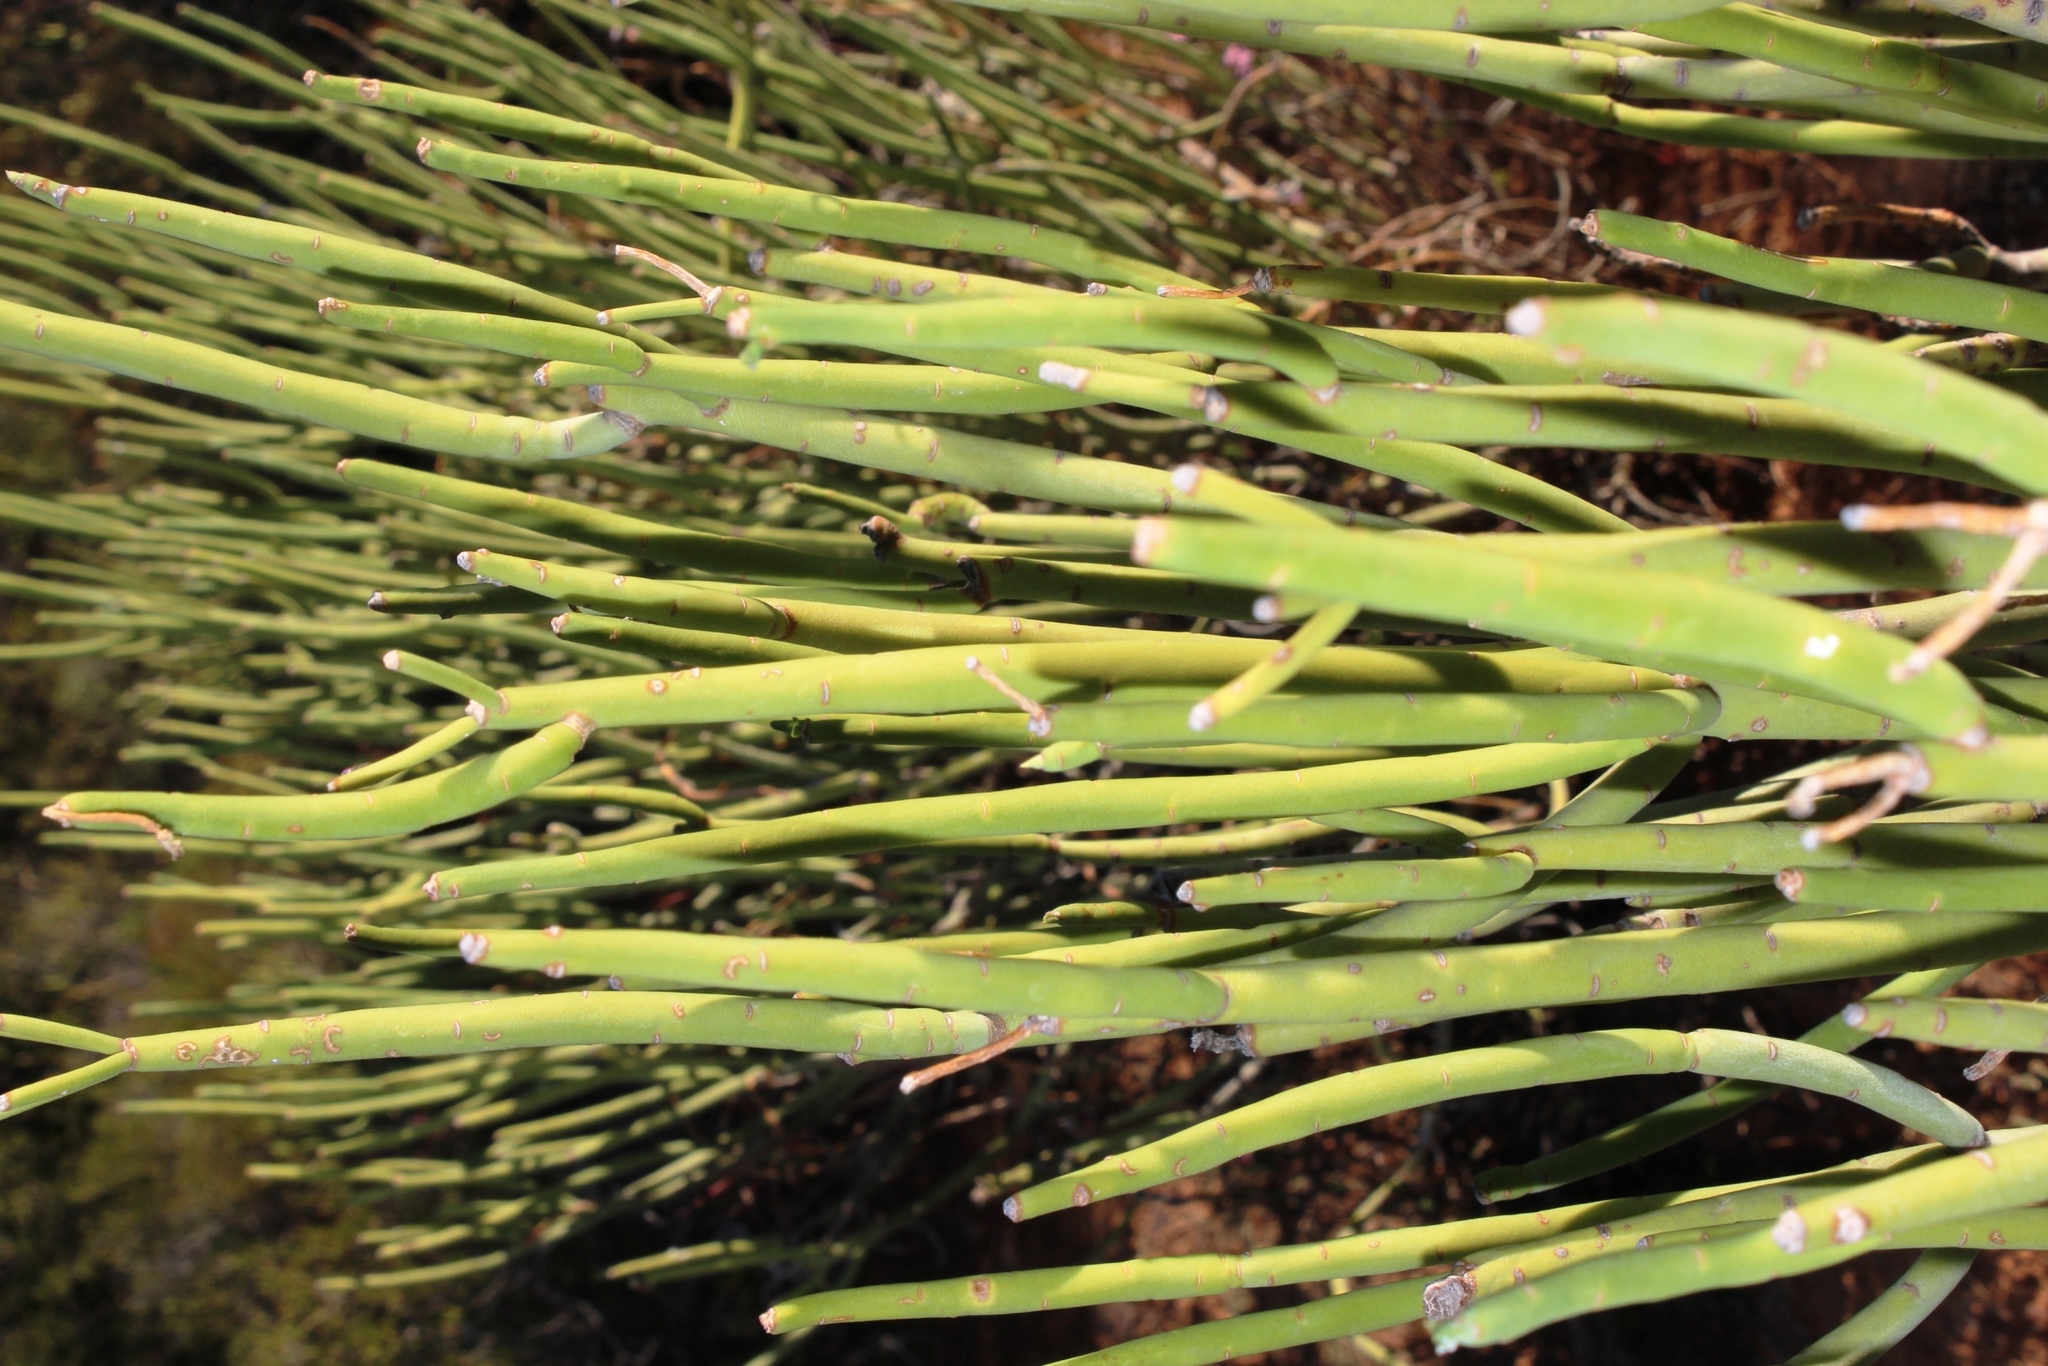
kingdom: Plantae
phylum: Tracheophyta
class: Magnoliopsida
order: Malpighiales
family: Euphorbiaceae
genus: Euphorbia
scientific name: Euphorbia mauritanica
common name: Jackal's-food
